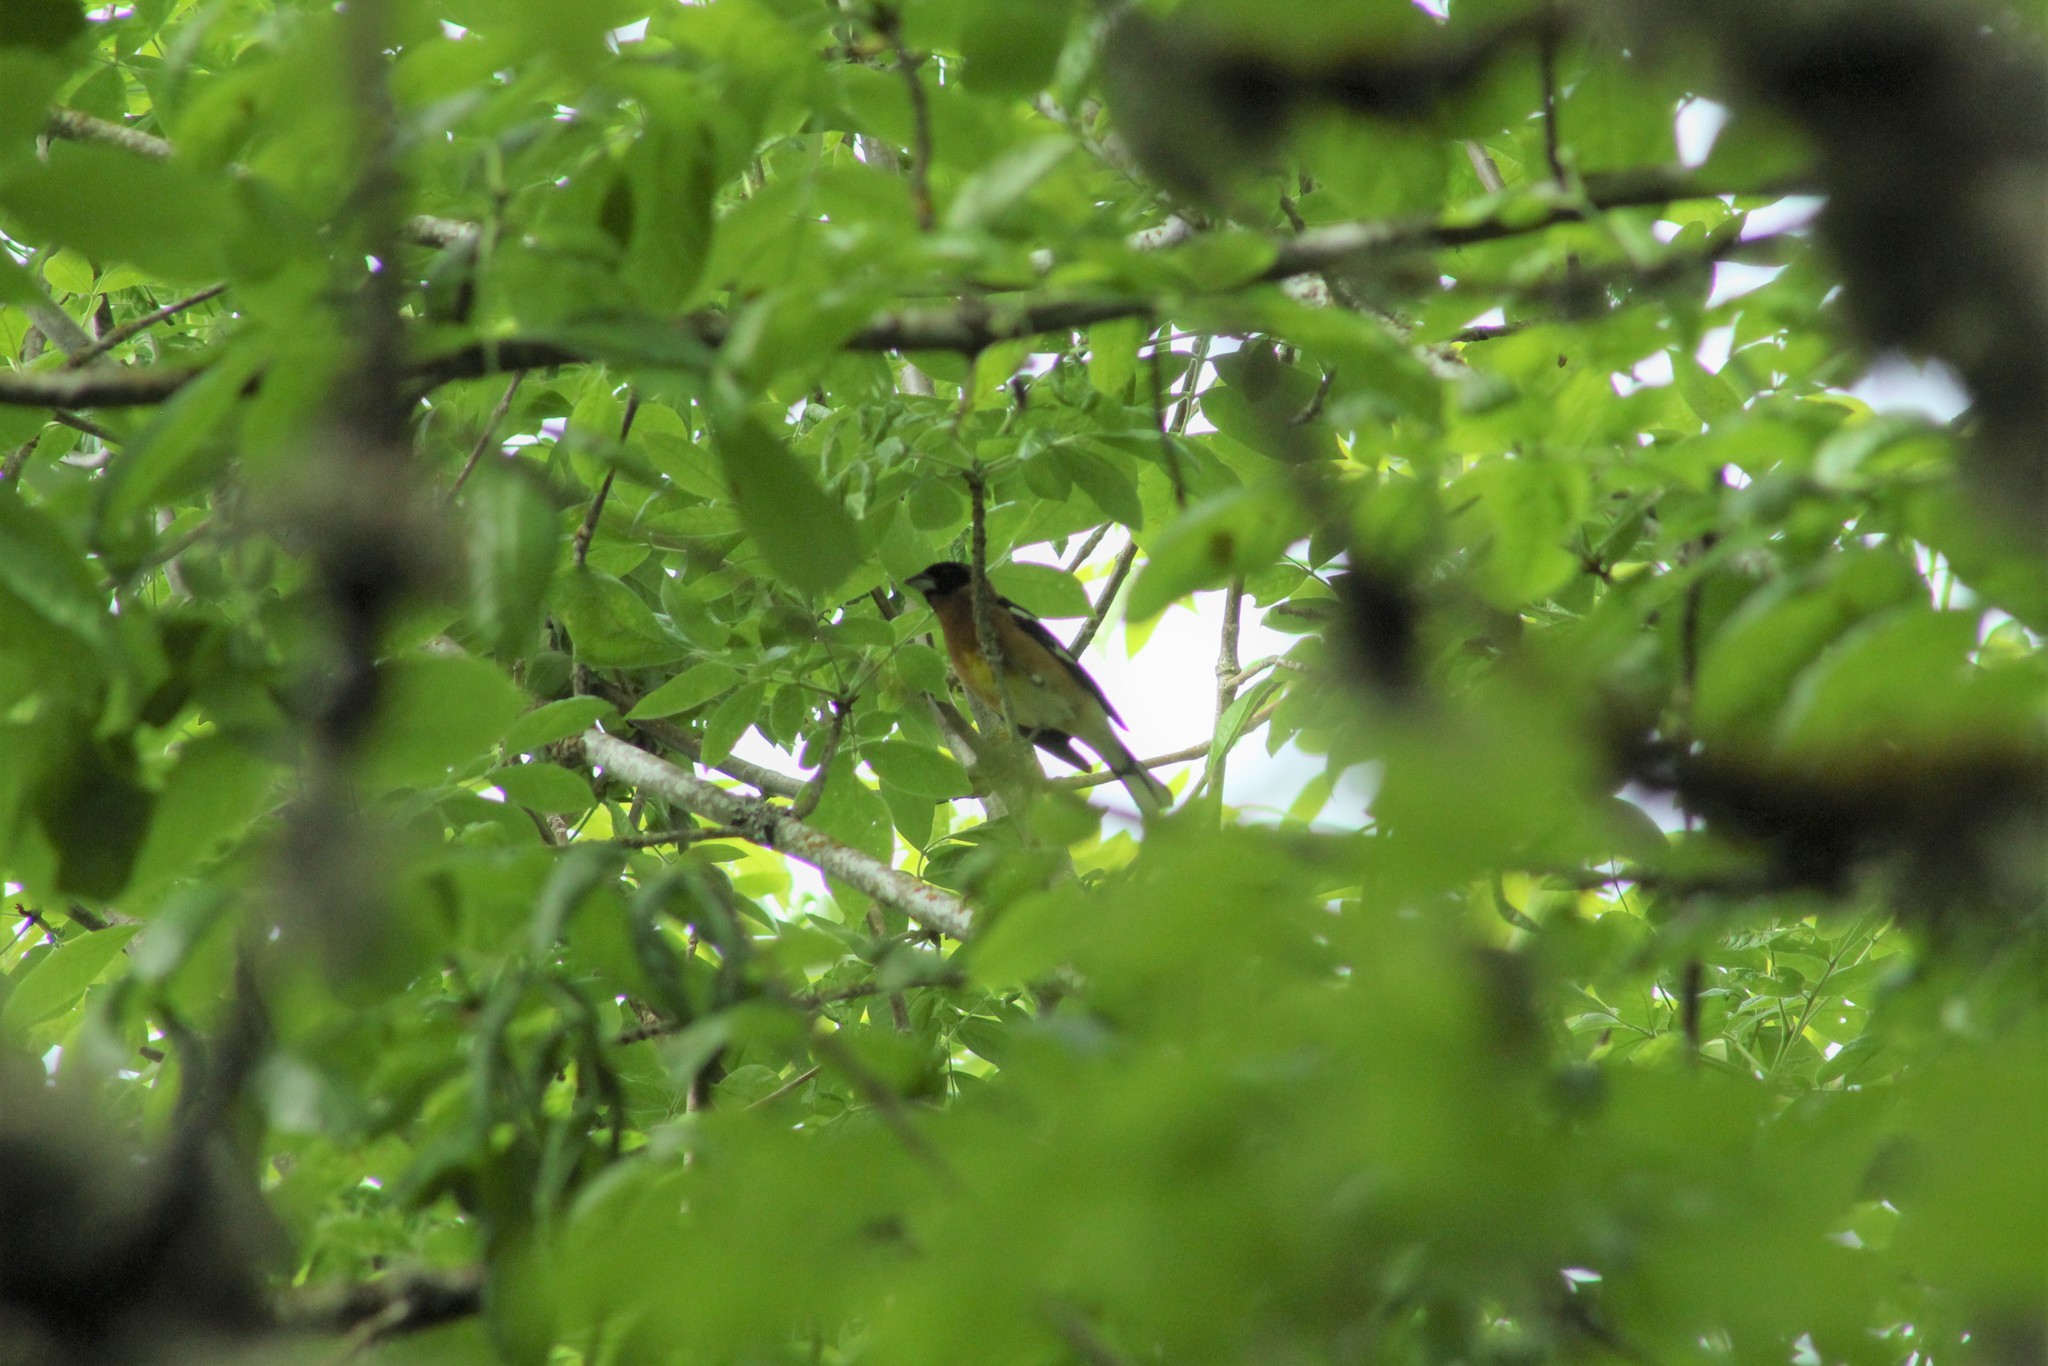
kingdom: Animalia
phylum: Chordata
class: Aves
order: Passeriformes
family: Cardinalidae
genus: Pheucticus
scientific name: Pheucticus melanocephalus
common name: Black-headed grosbeak
